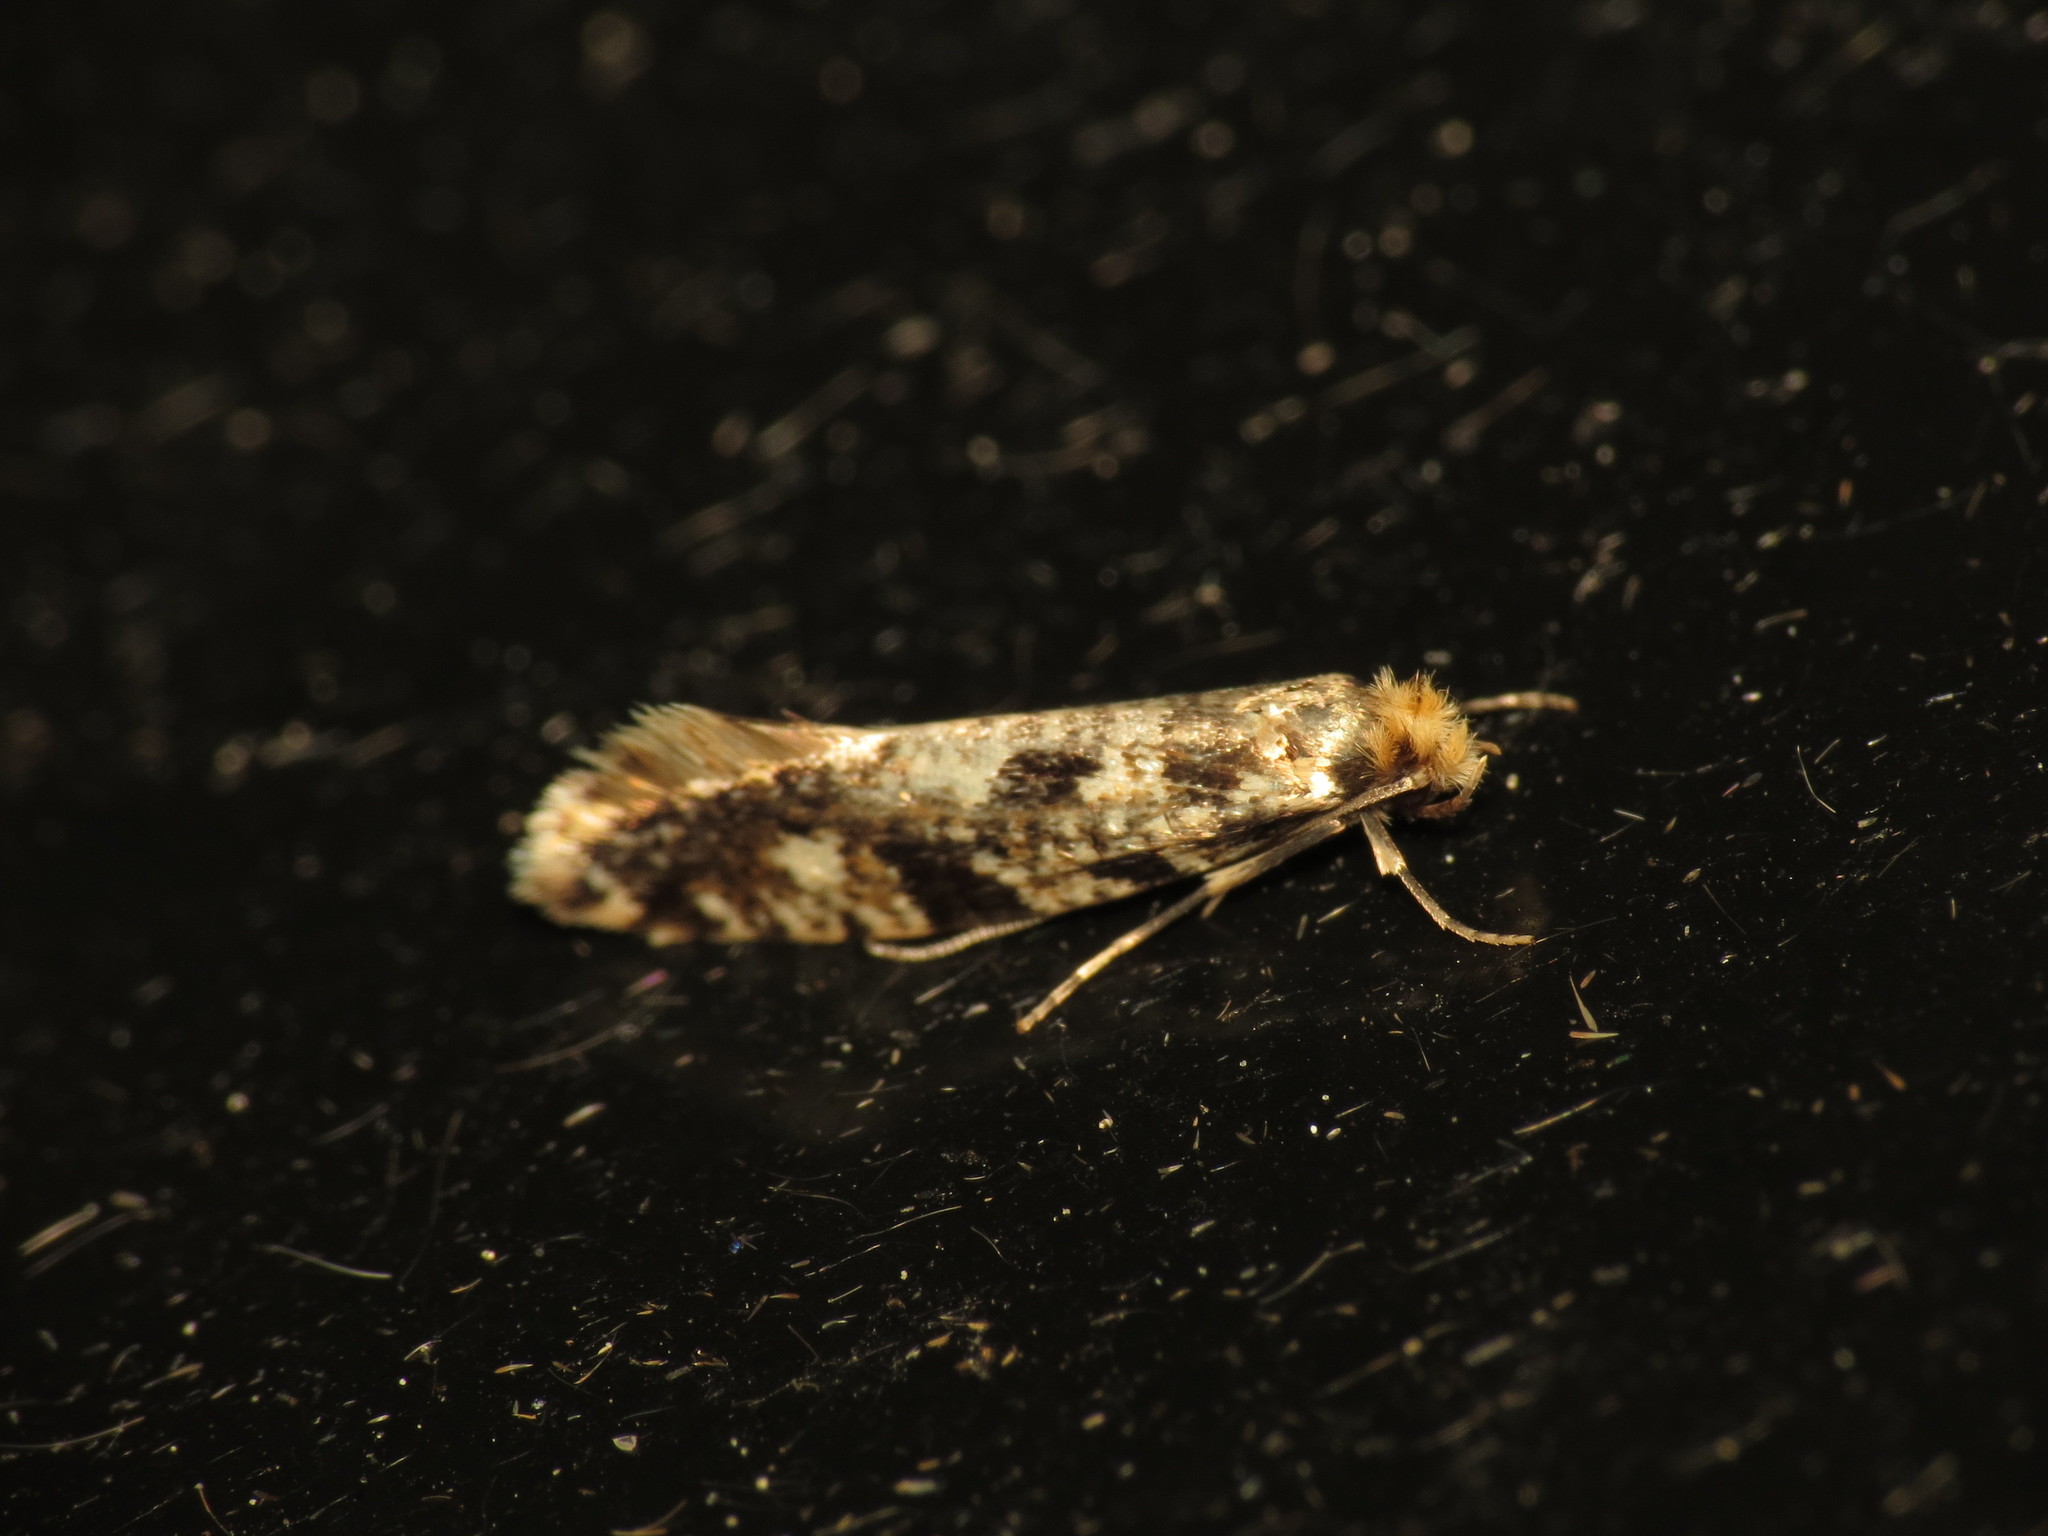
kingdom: Animalia
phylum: Arthropoda
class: Insecta
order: Lepidoptera
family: Tineidae
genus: Nemapogon
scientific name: Nemapogon cloacella
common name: Cork moth
